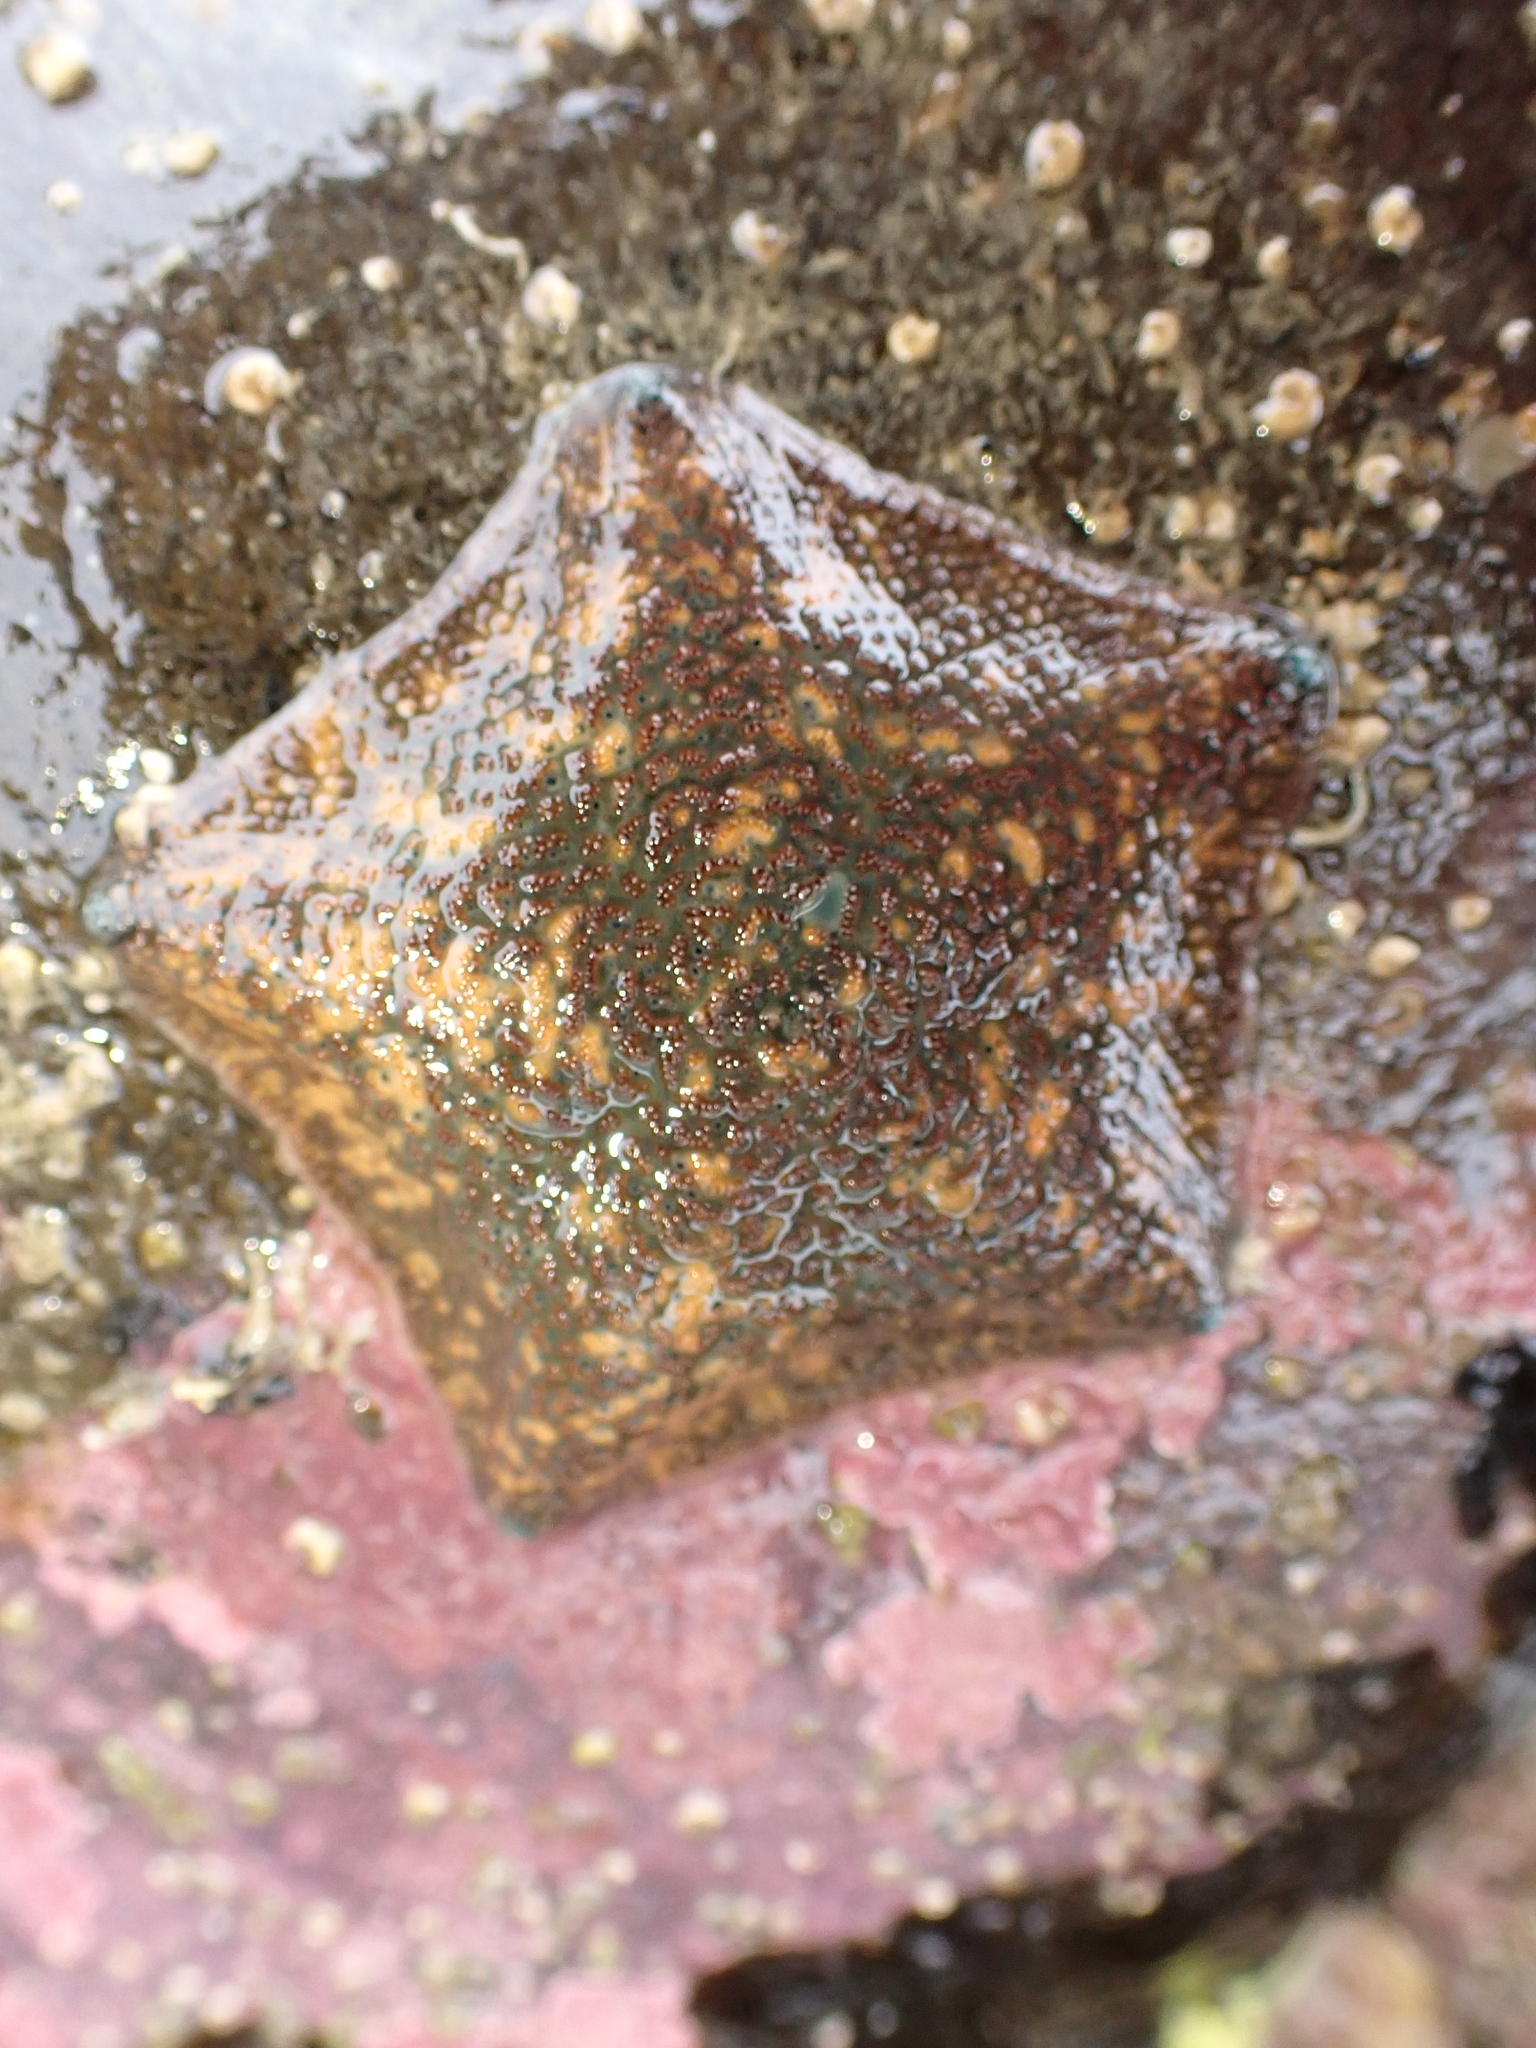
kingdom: Animalia
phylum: Echinodermata
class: Asteroidea
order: Valvatida
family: Asterinidae
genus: Patiriella
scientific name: Patiriella regularis
